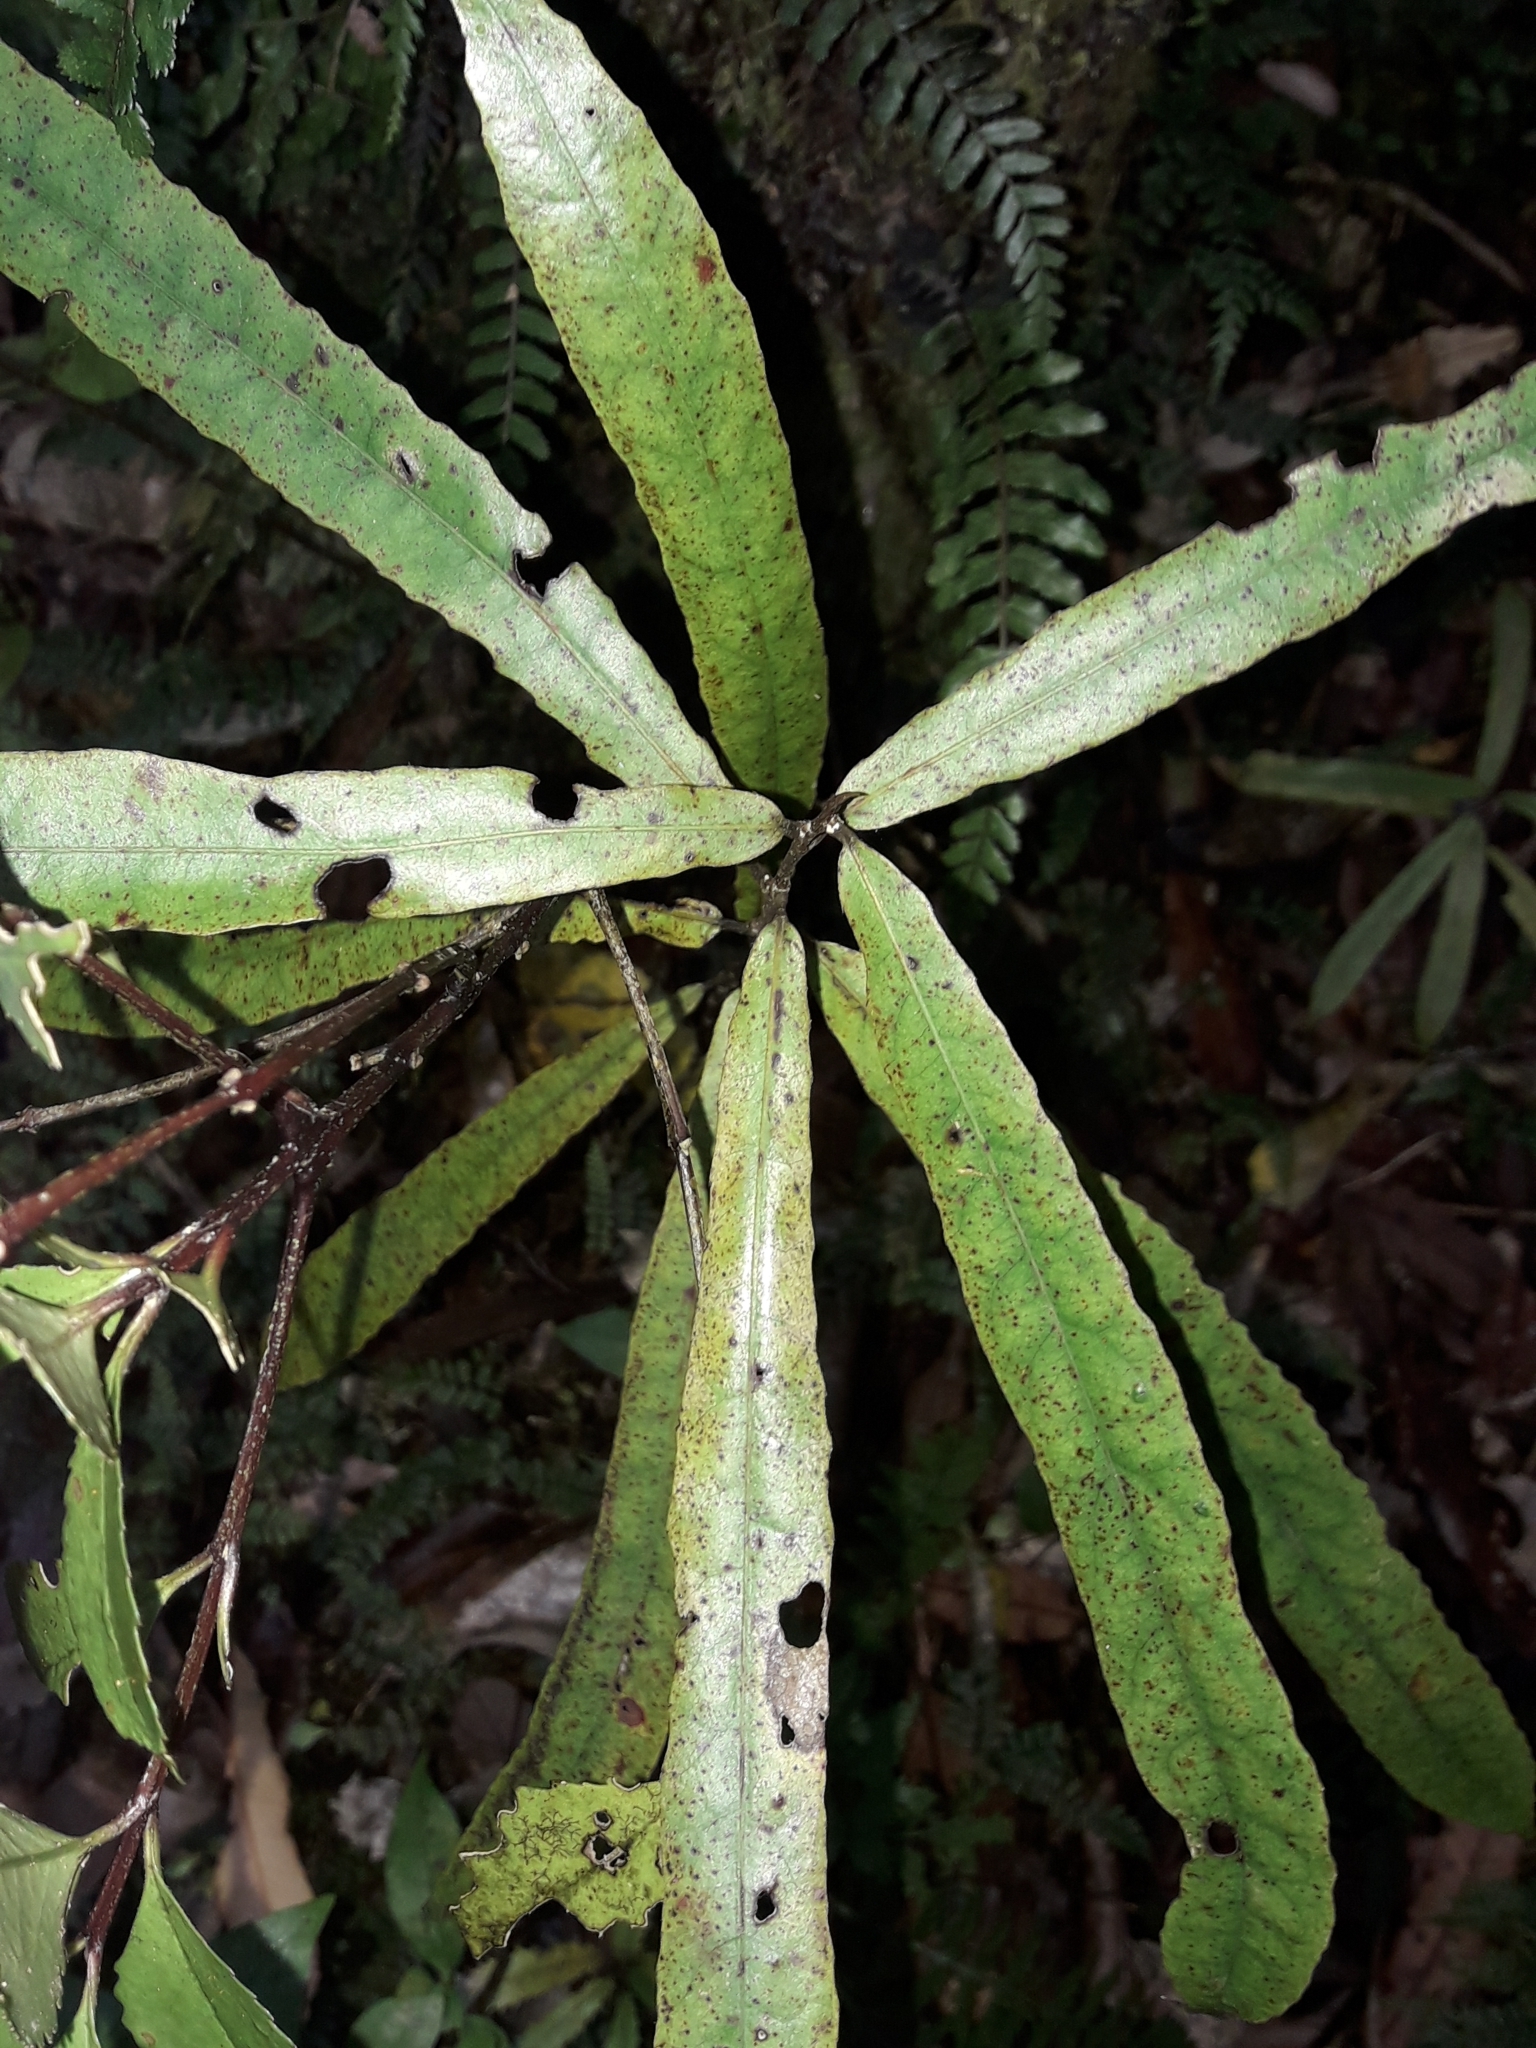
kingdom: Plantae
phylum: Tracheophyta
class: Magnoliopsida
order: Oxalidales
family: Elaeocarpaceae
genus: Elaeocarpus
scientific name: Elaeocarpus dentatus
